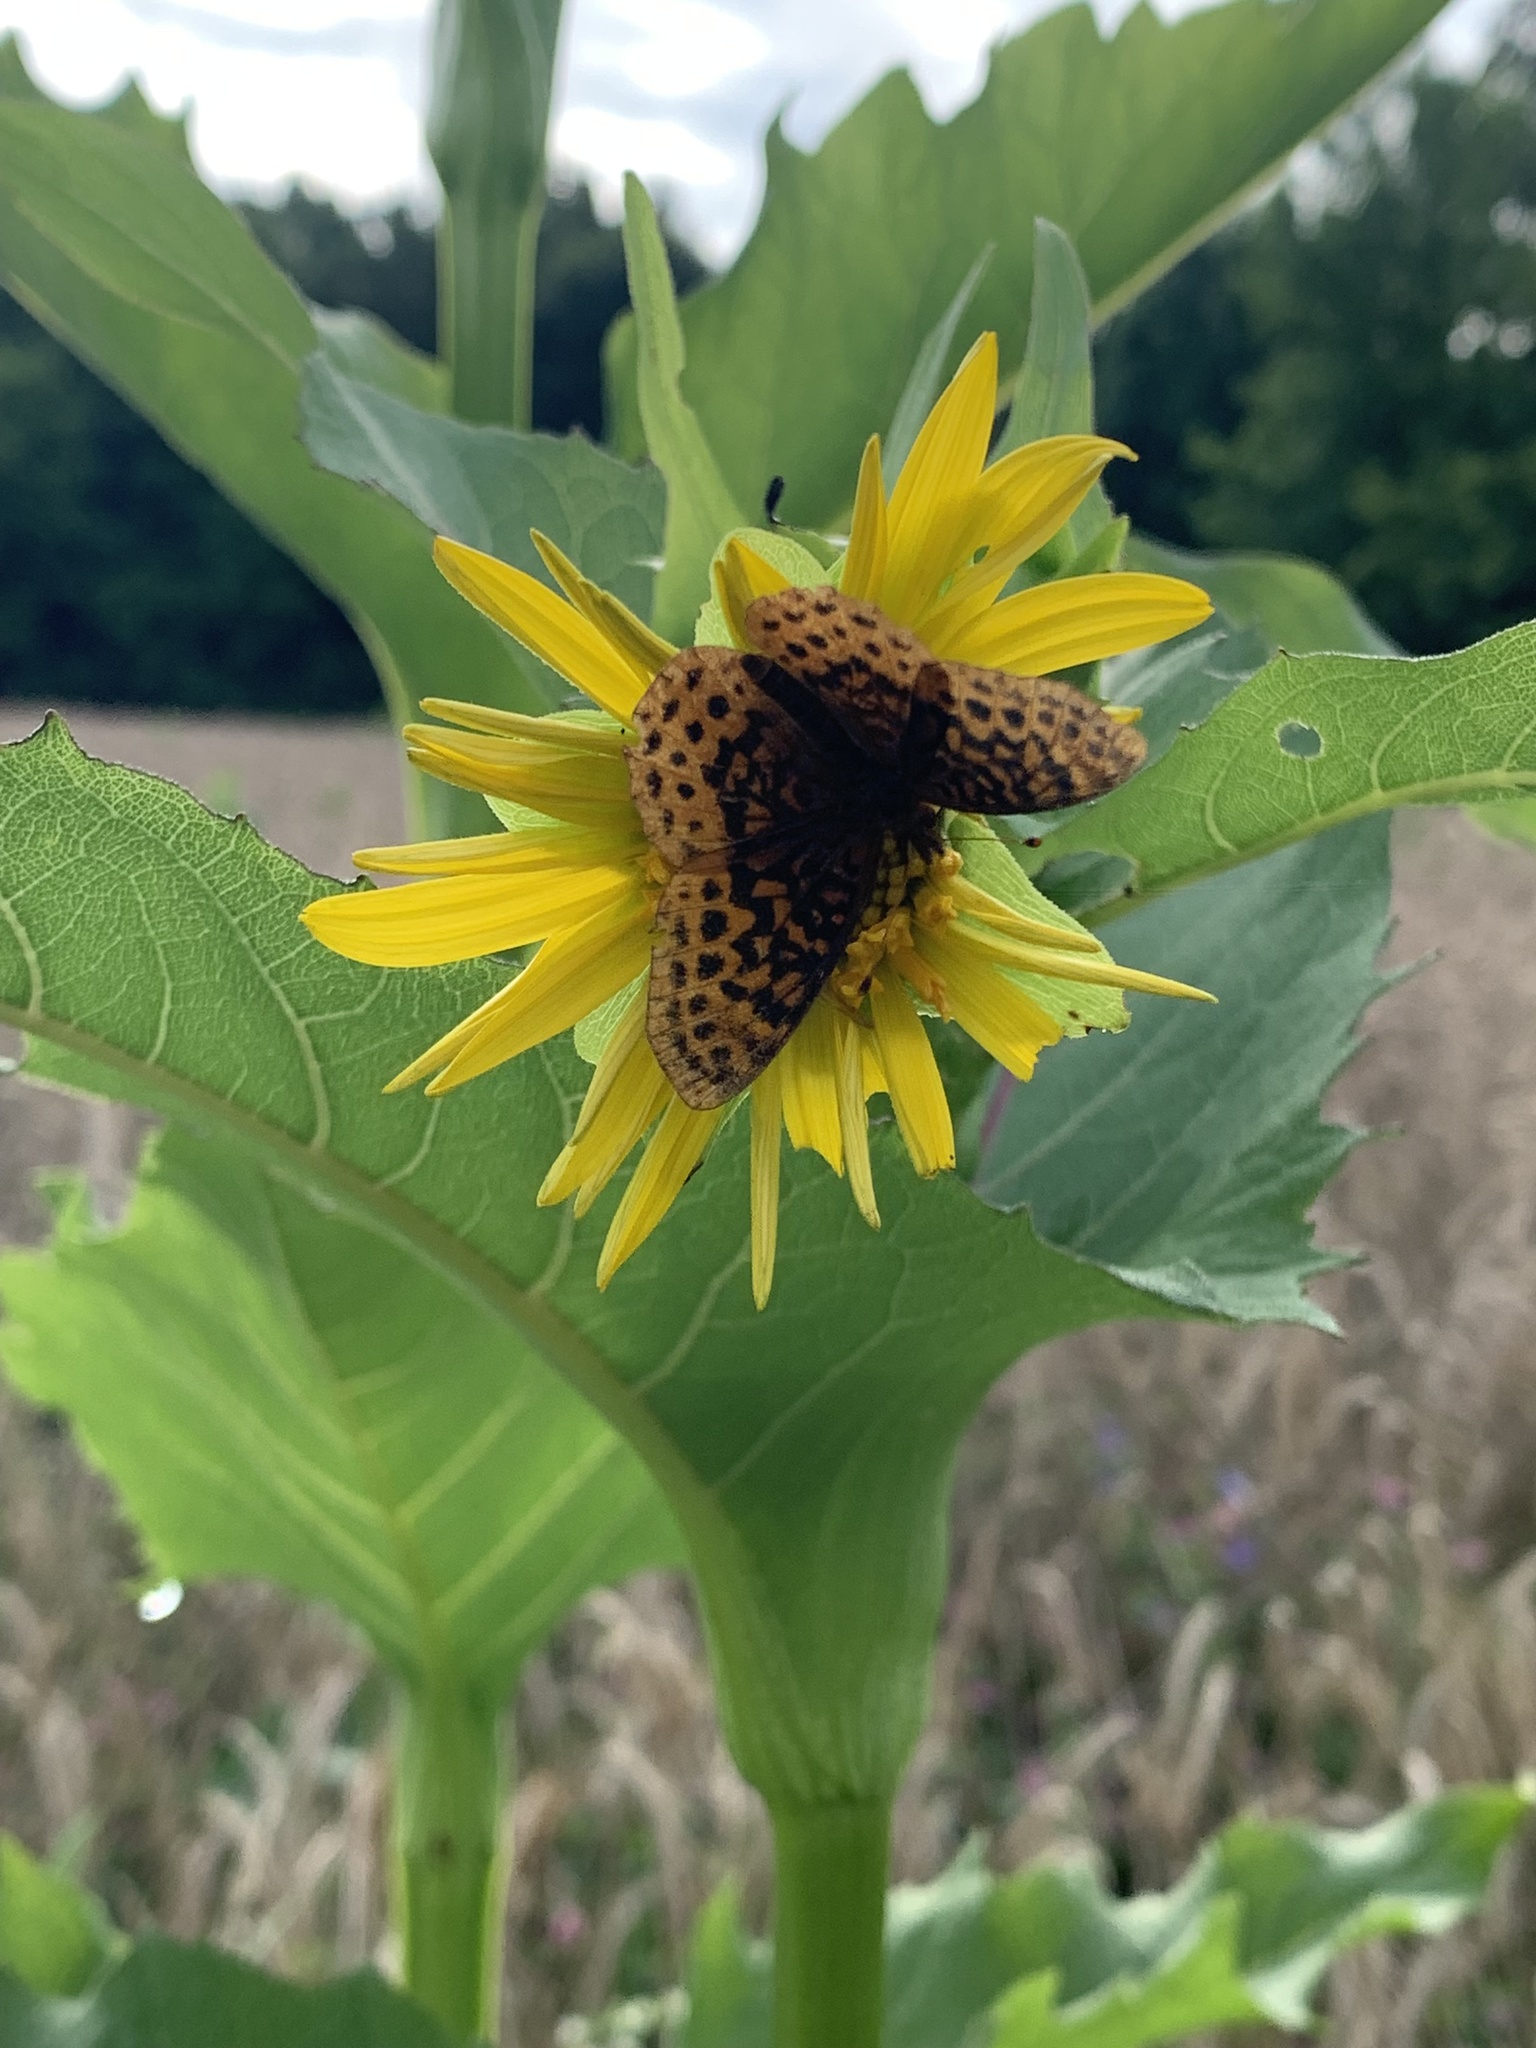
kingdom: Animalia
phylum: Arthropoda
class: Insecta
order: Lepidoptera
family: Nymphalidae
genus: Clossiana
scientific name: Clossiana toddi
